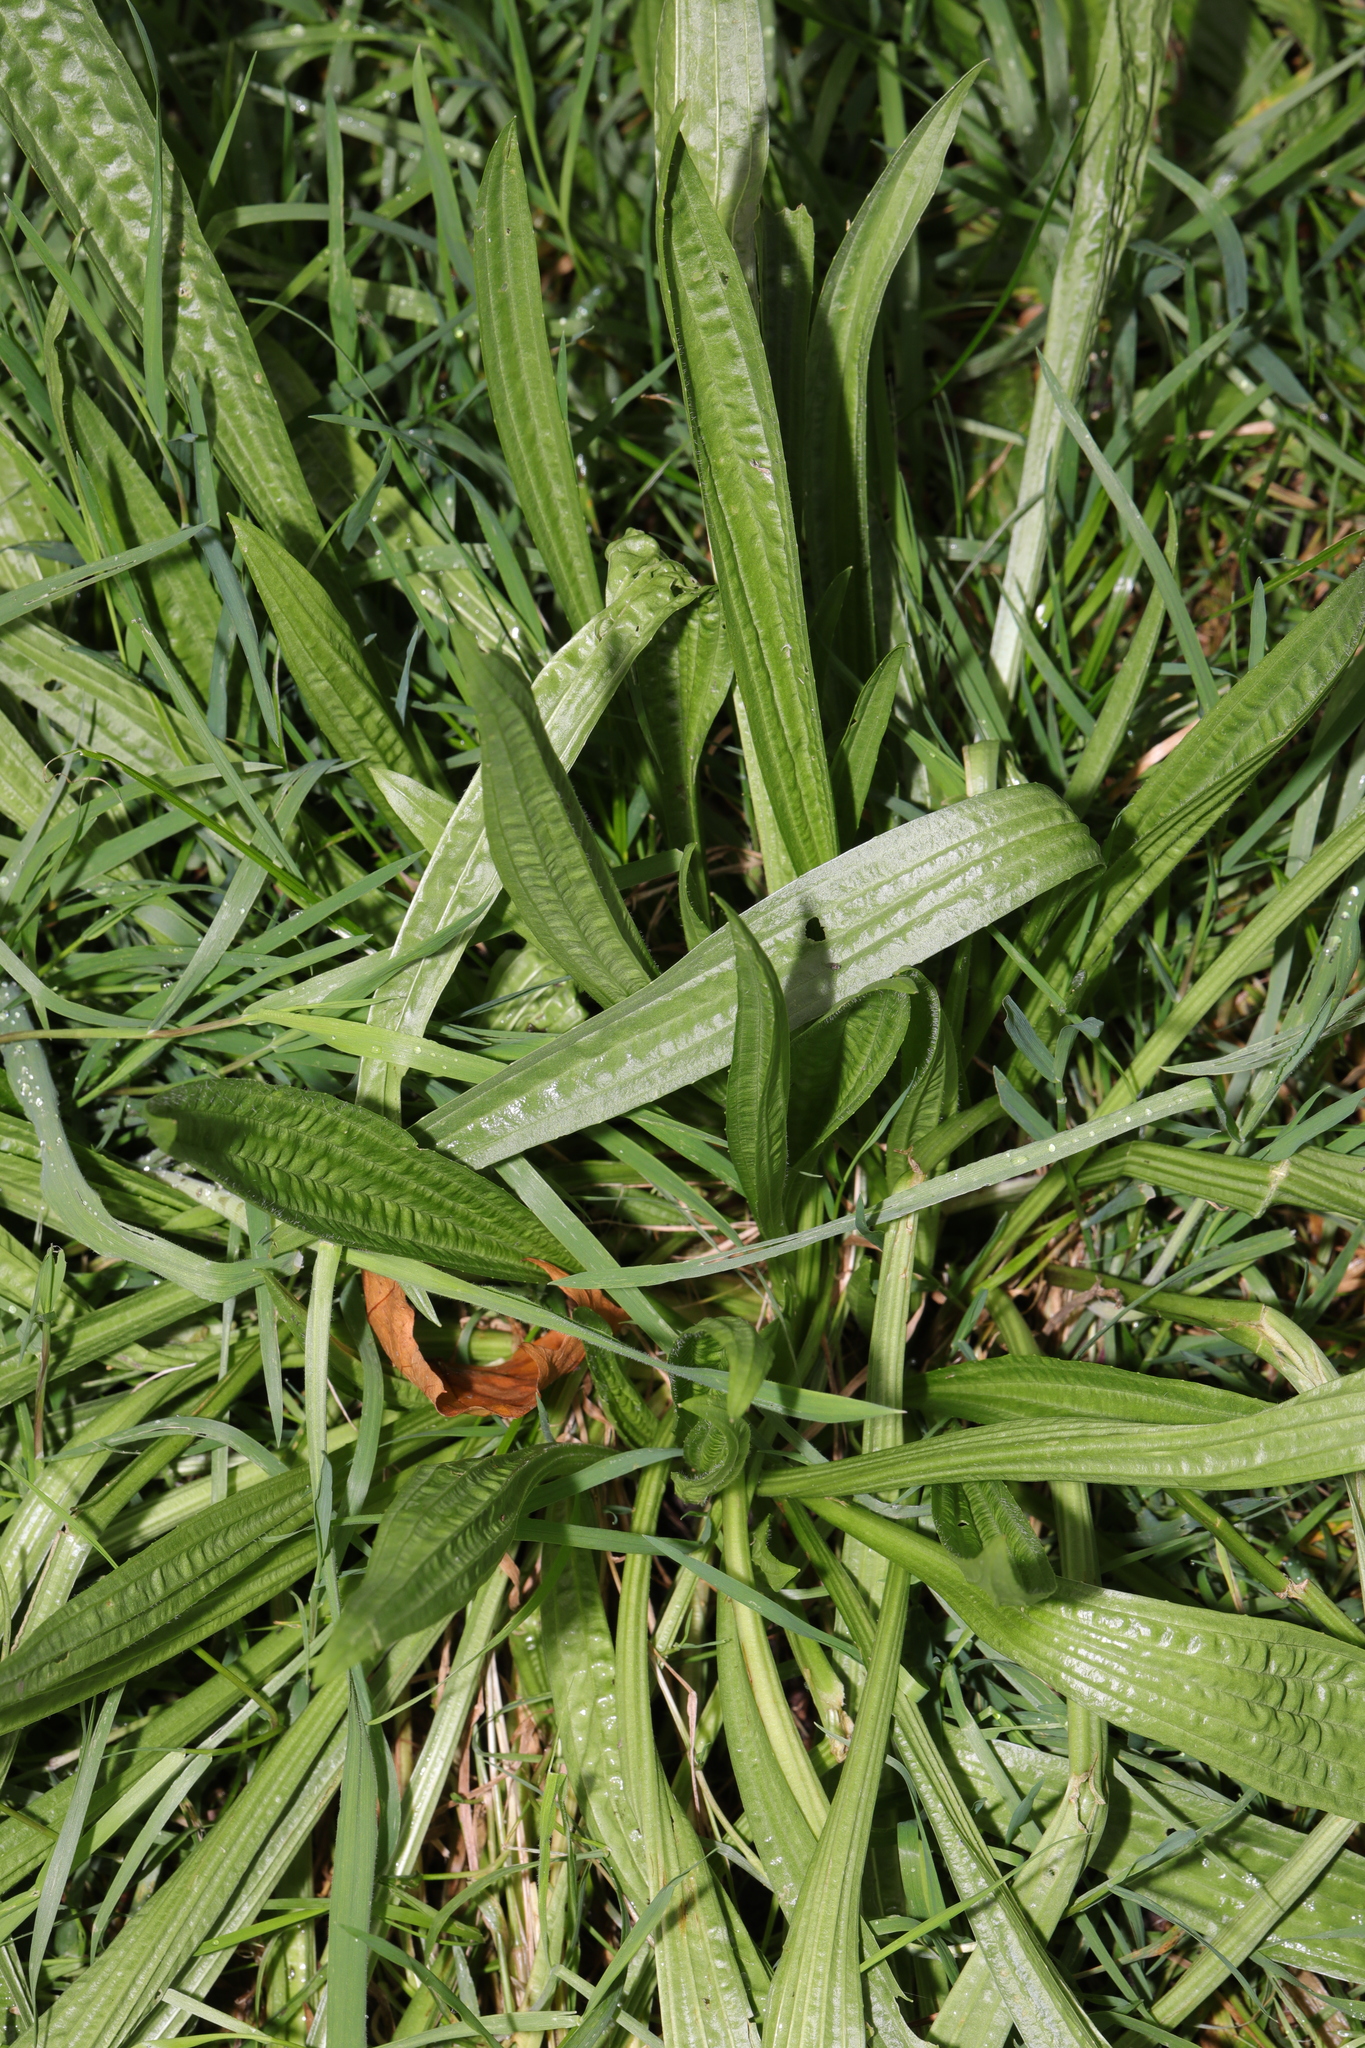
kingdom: Plantae
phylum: Tracheophyta
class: Magnoliopsida
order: Lamiales
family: Plantaginaceae
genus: Plantago
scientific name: Plantago lanceolata
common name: Ribwort plantain
